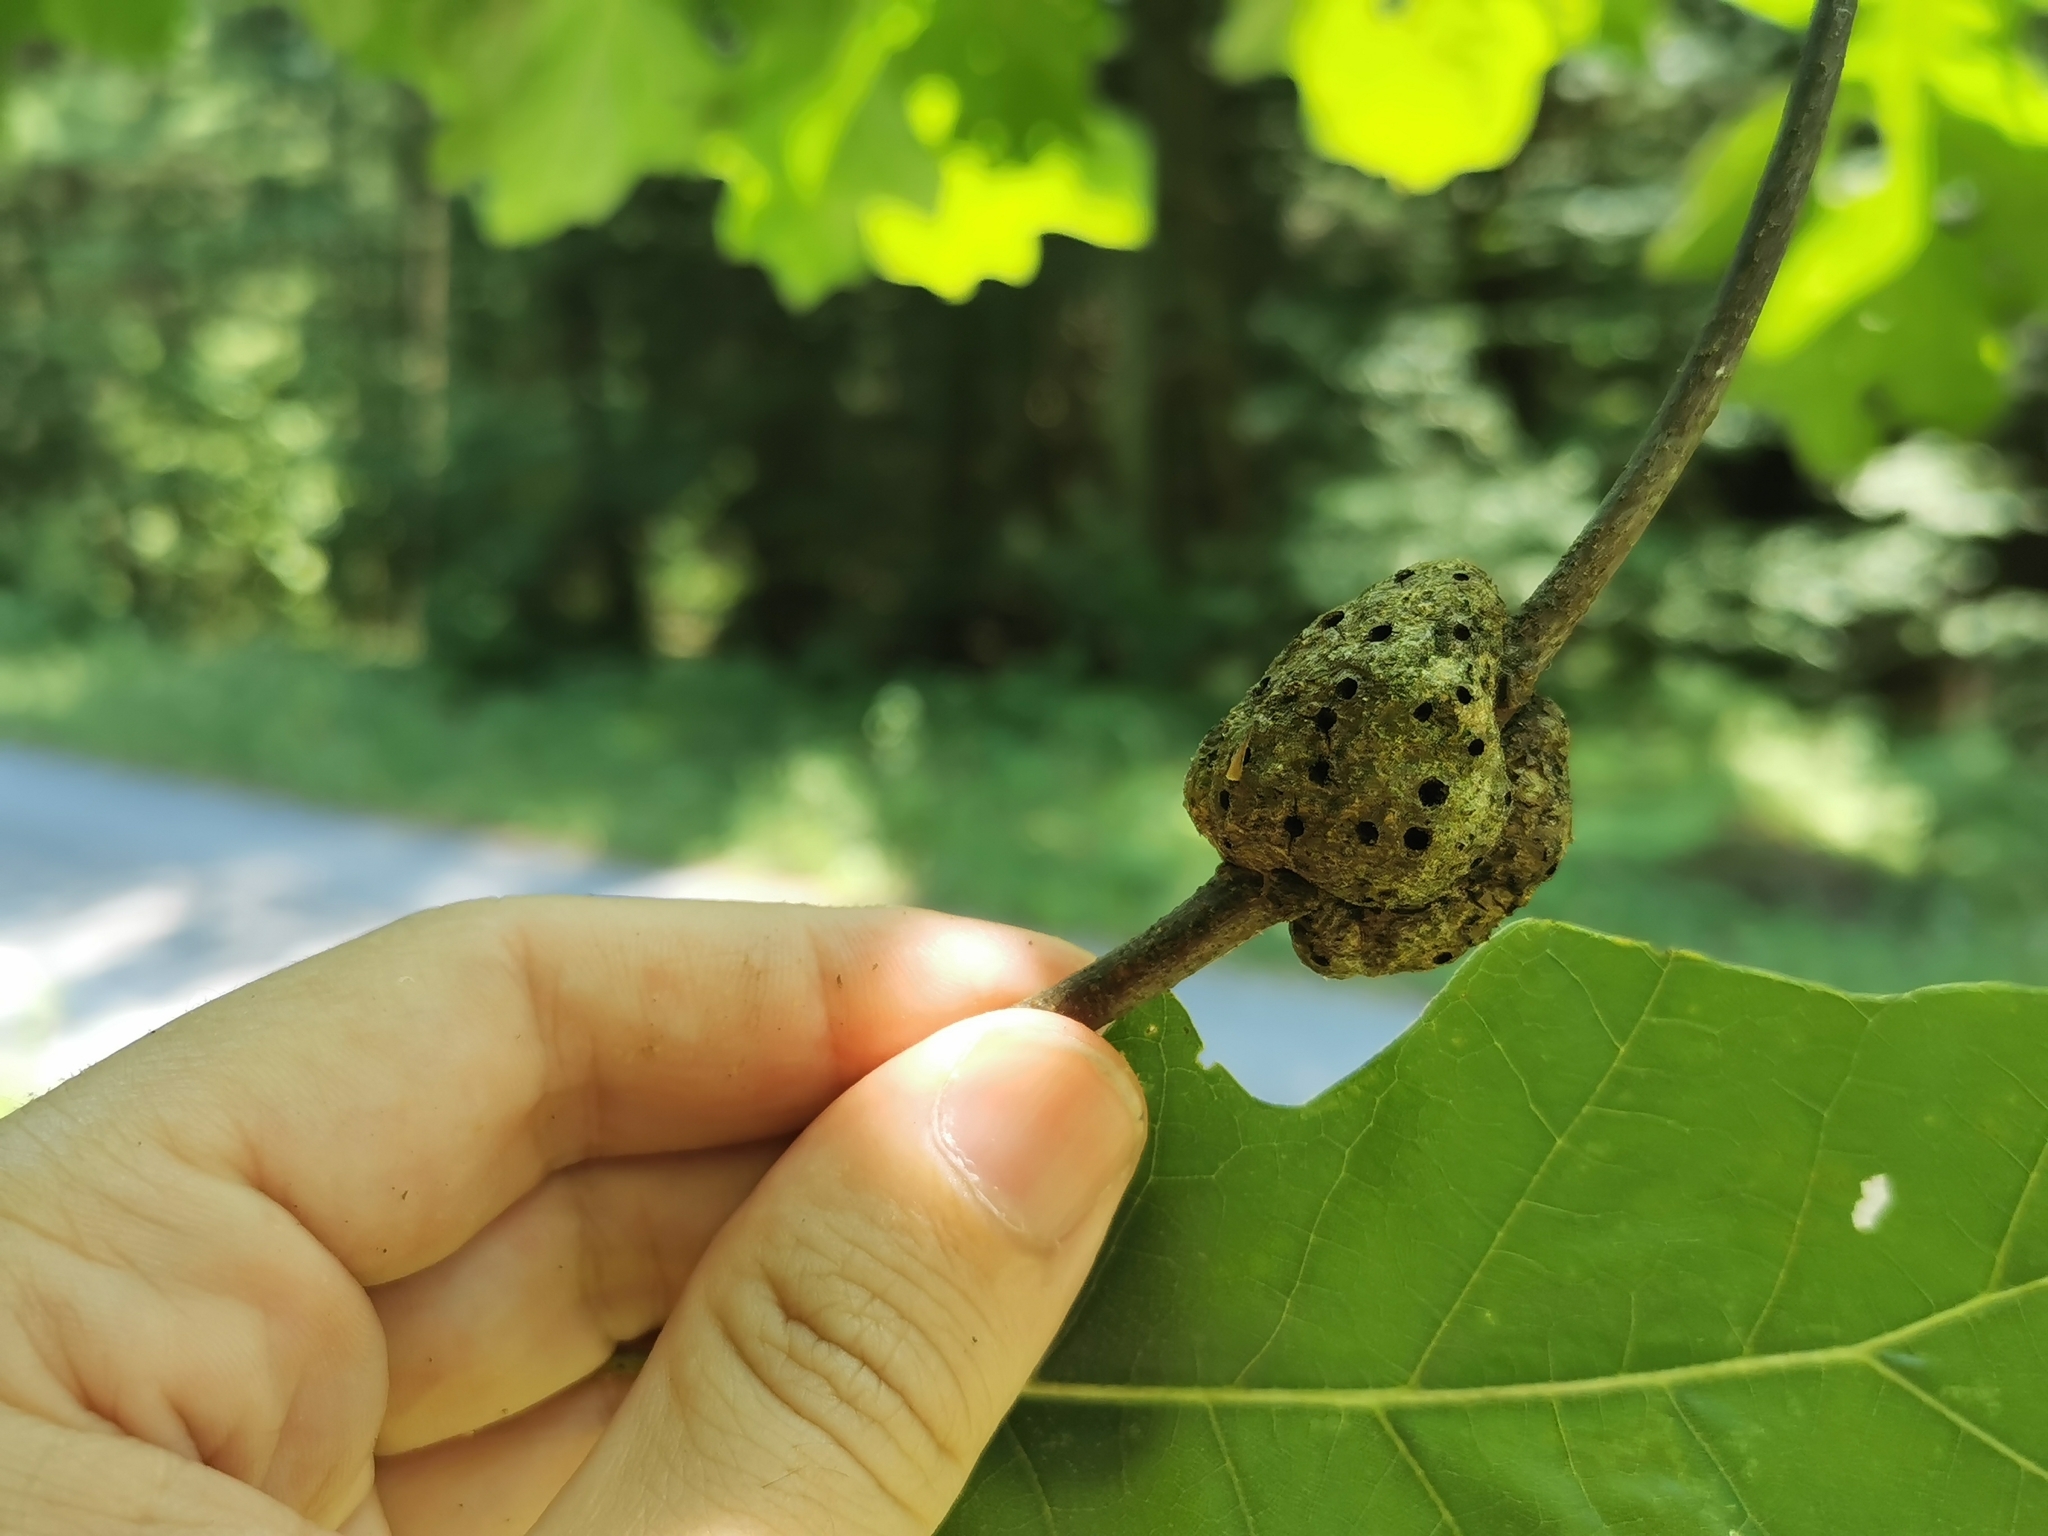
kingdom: Animalia
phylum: Arthropoda
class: Insecta
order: Hymenoptera
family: Cynipidae
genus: Callirhytis
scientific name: Callirhytis
